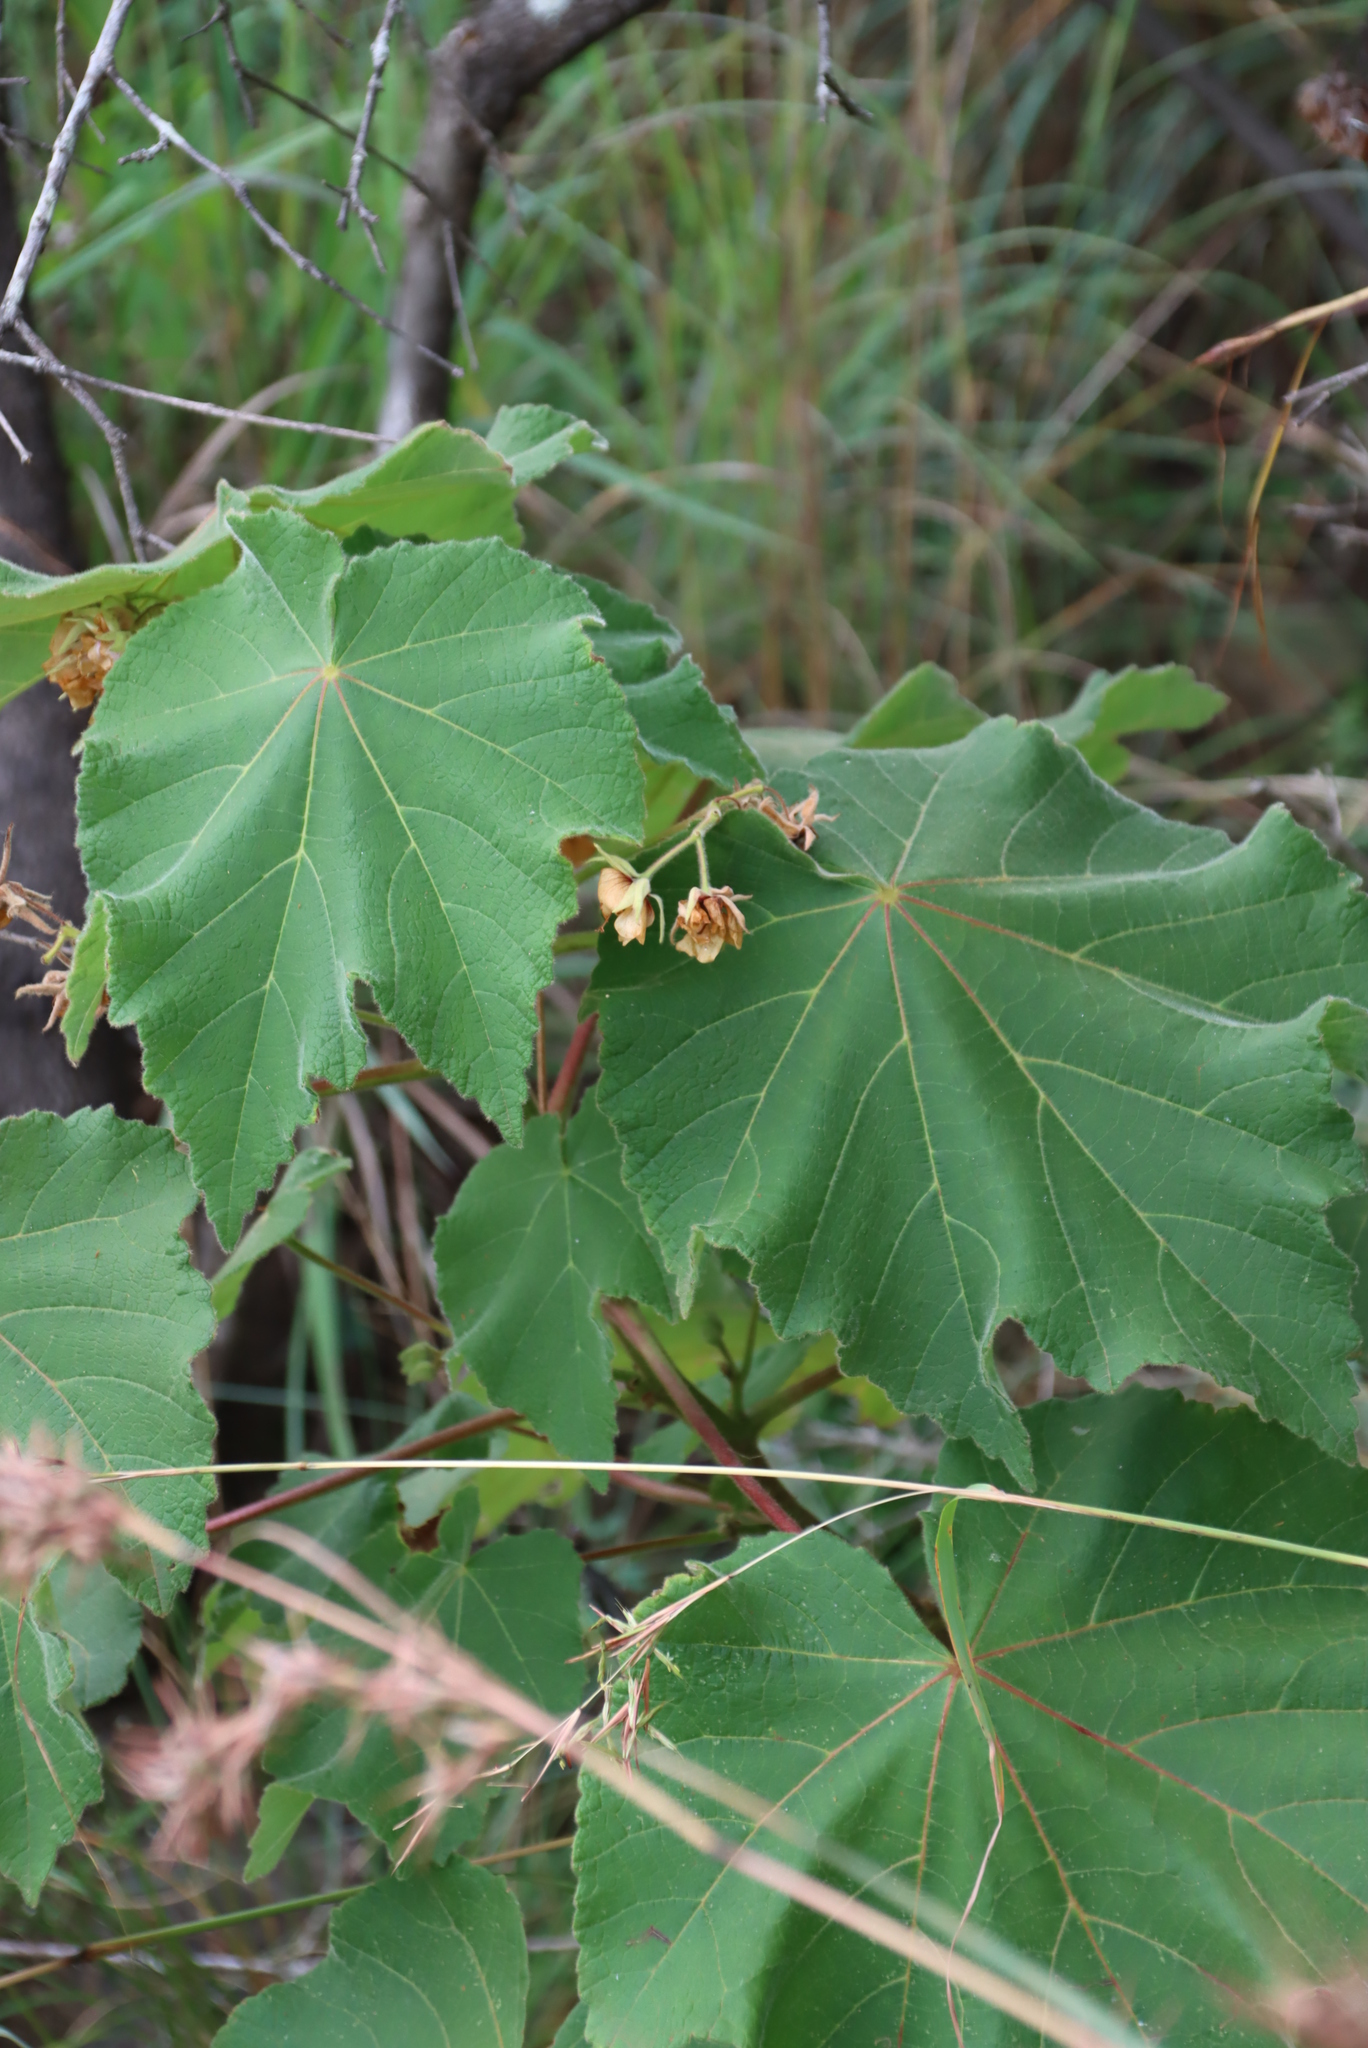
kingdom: Plantae
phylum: Tracheophyta
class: Magnoliopsida
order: Malvales
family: Malvaceae
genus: Dombeya
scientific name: Dombeya burgessiae
